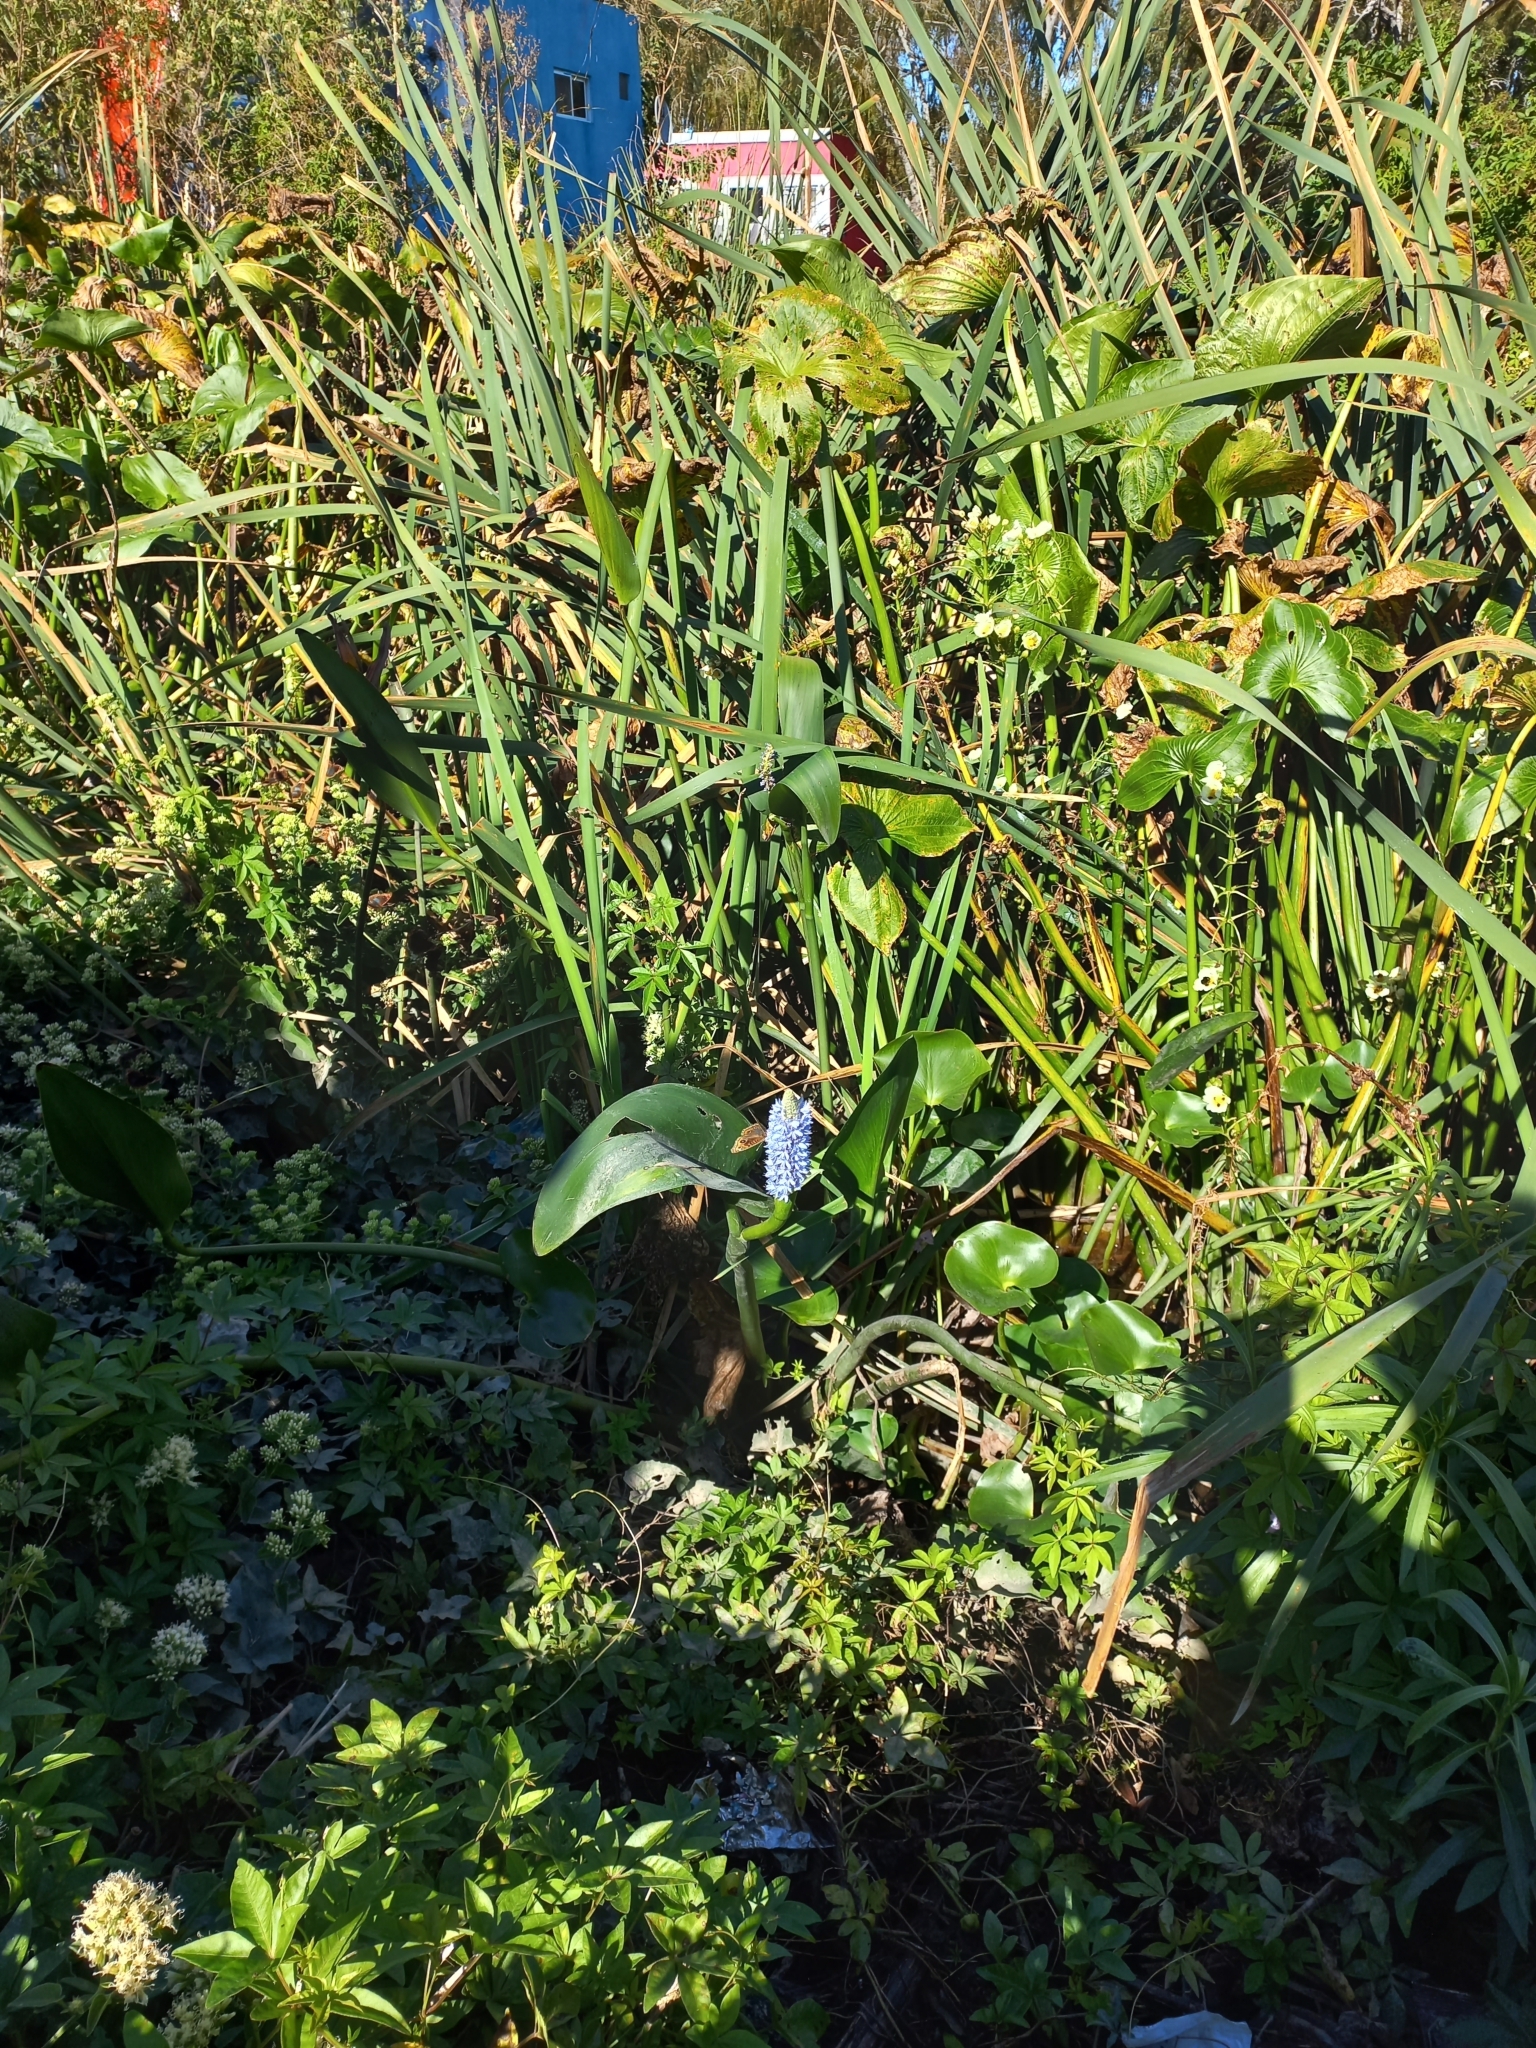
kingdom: Plantae
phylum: Tracheophyta
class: Liliopsida
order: Commelinales
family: Pontederiaceae
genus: Pontederia
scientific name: Pontederia cordata
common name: Pickerelweed
